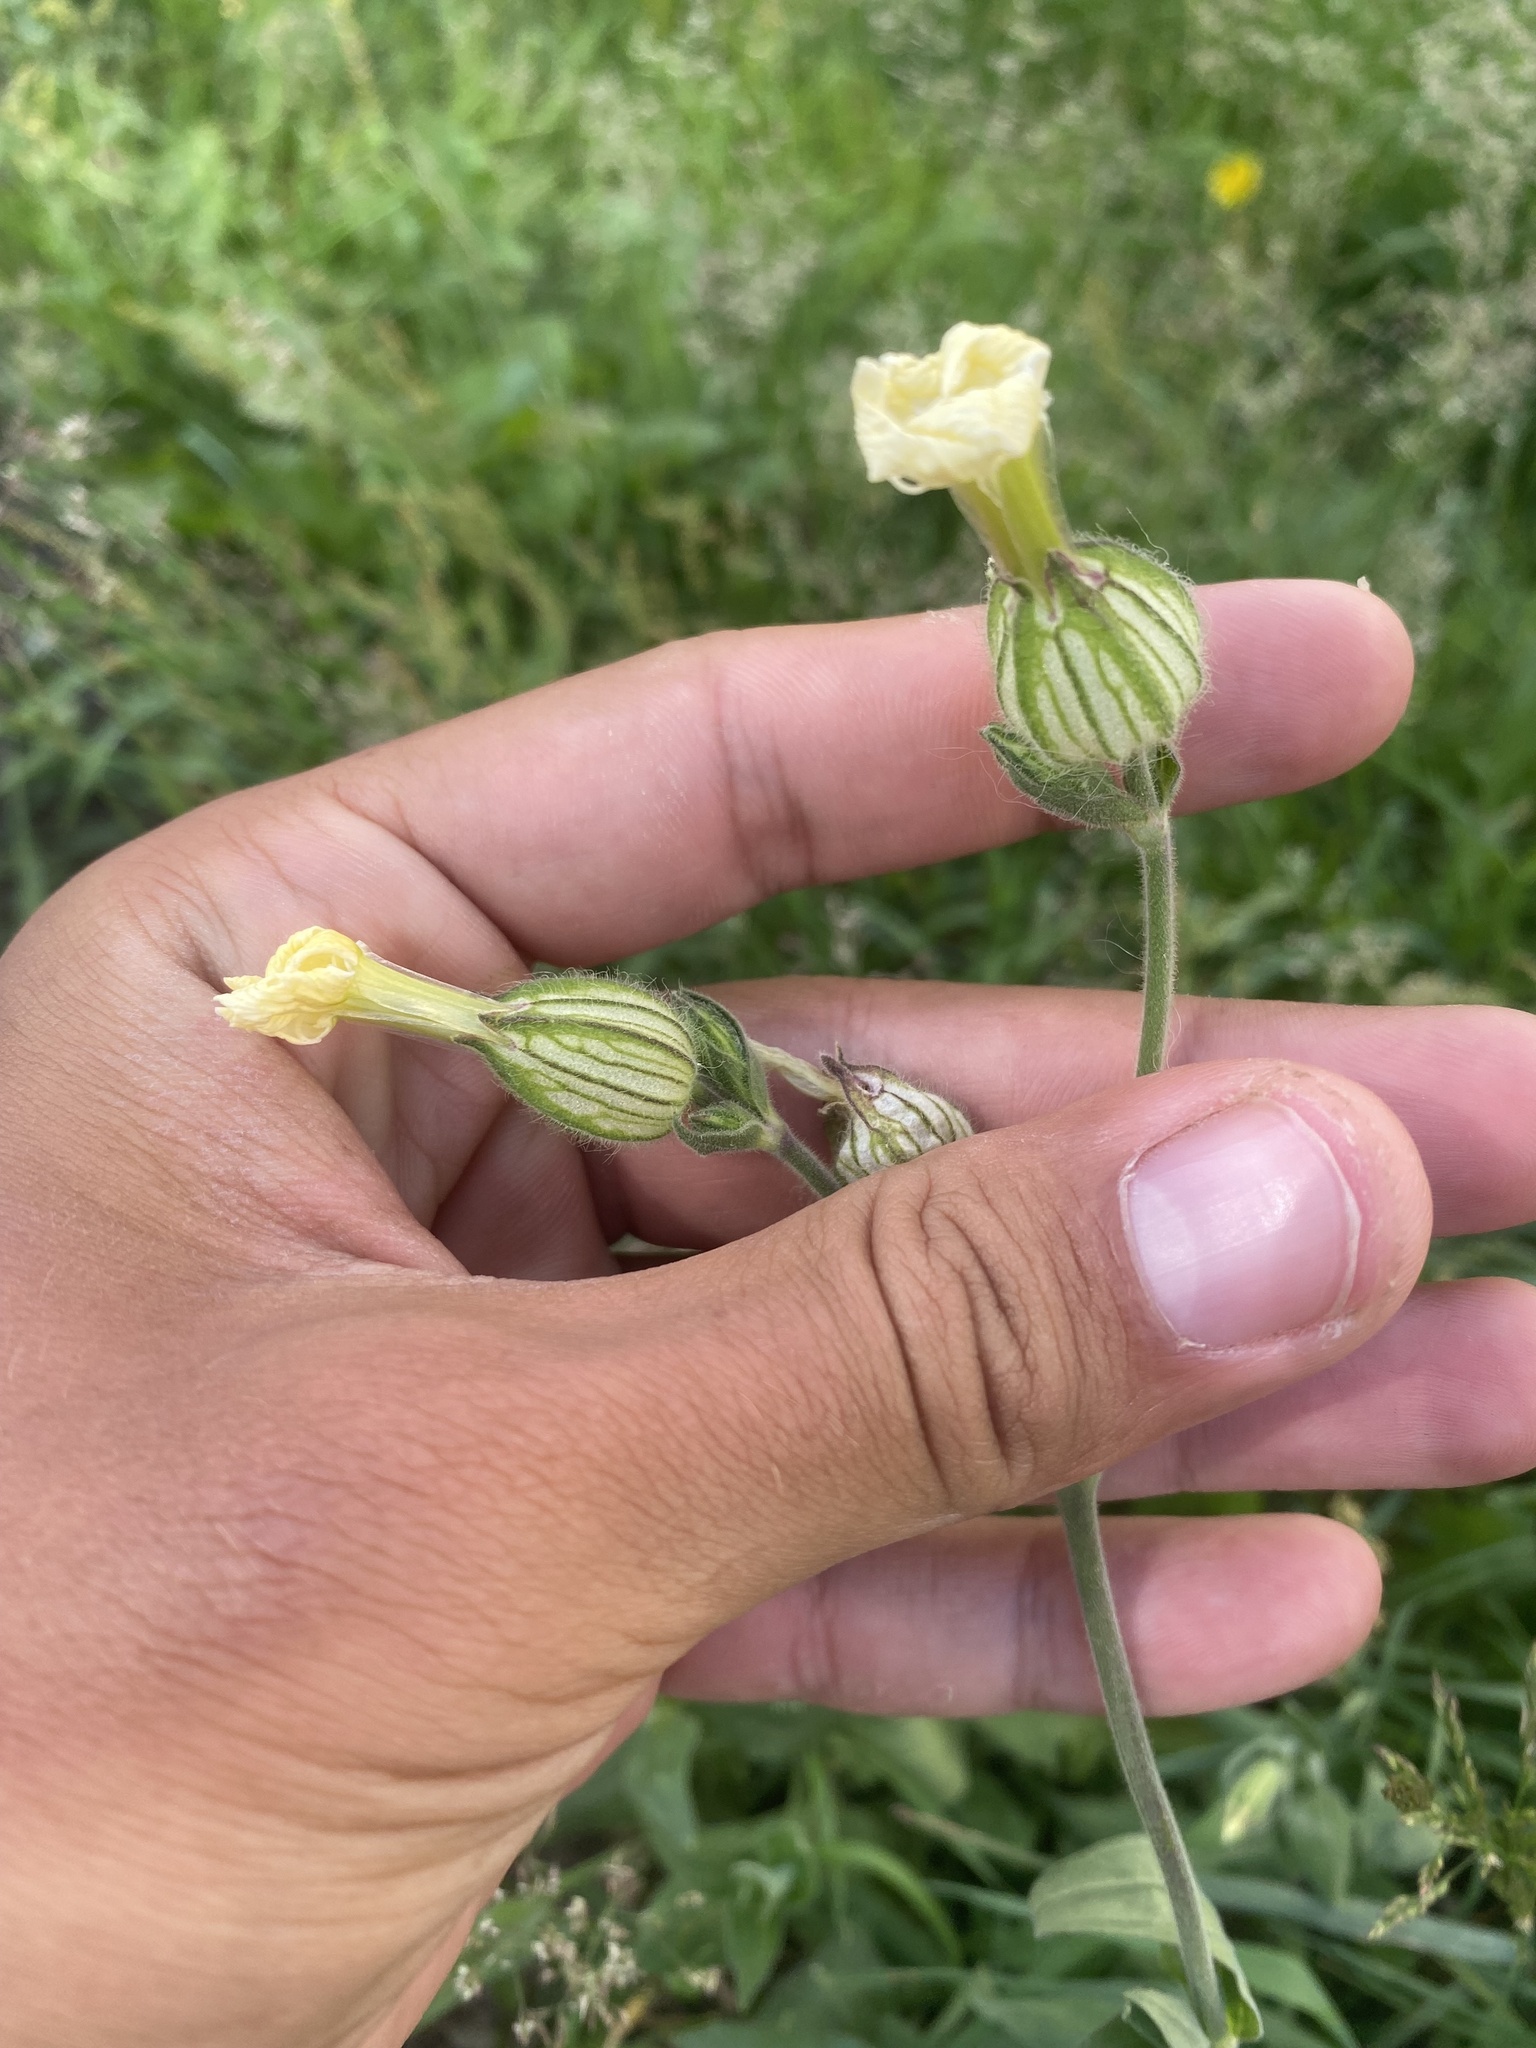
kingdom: Plantae
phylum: Tracheophyta
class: Magnoliopsida
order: Caryophyllales
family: Caryophyllaceae
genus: Silene
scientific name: Silene latifolia
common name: White campion
